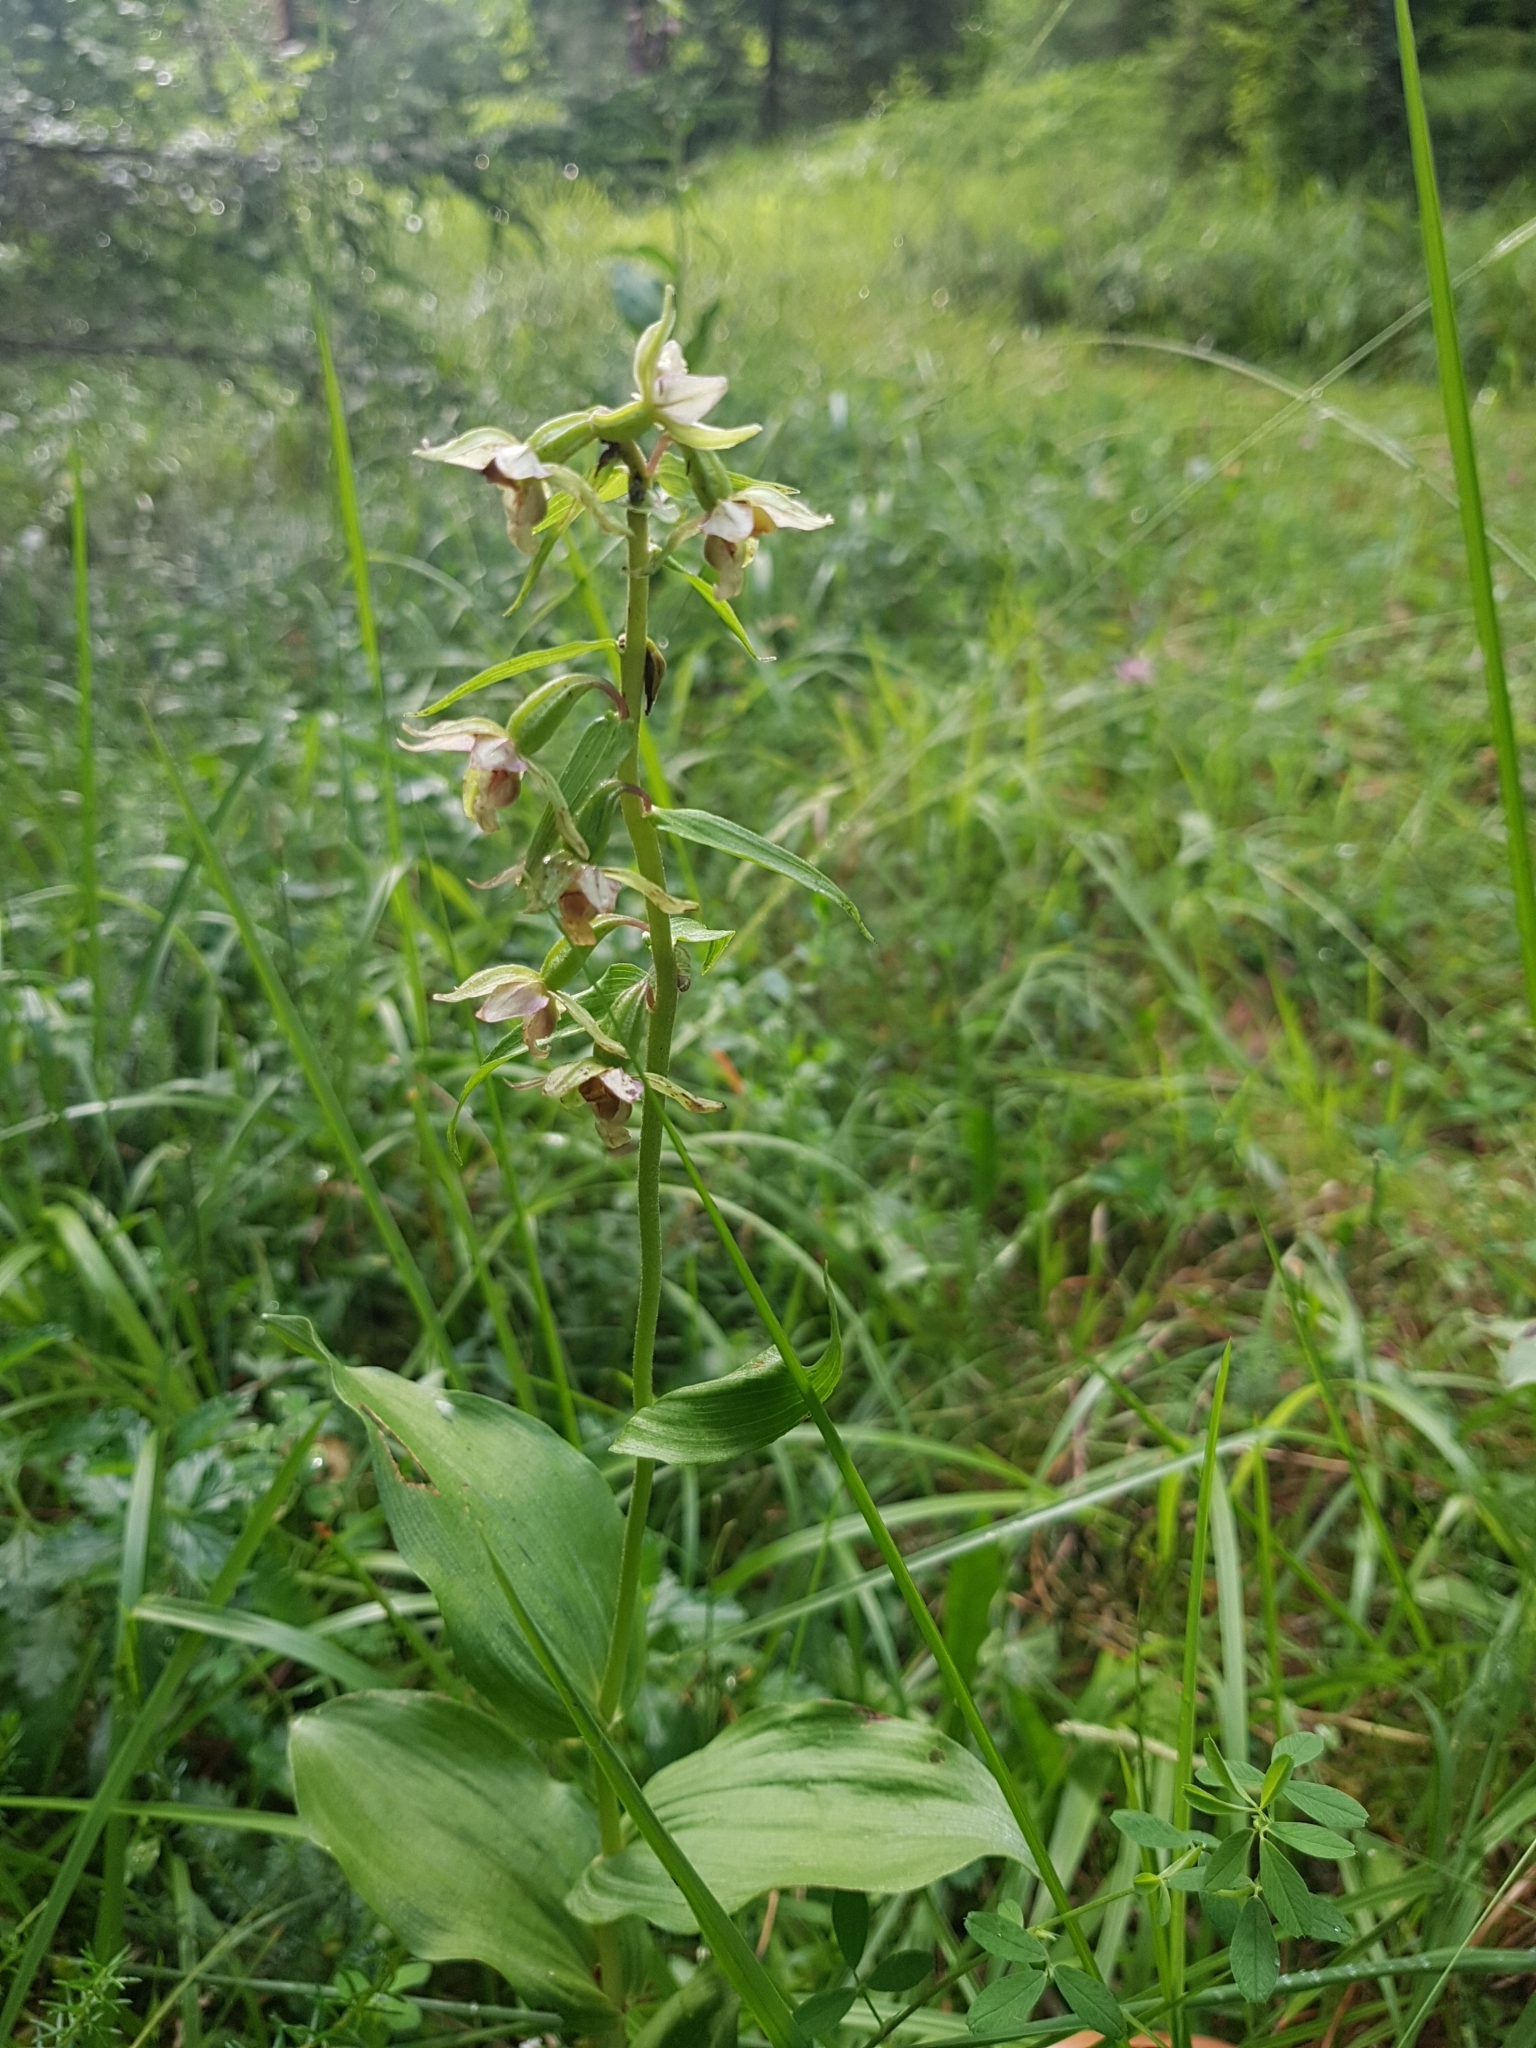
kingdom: Plantae
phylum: Tracheophyta
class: Liliopsida
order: Asparagales
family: Orchidaceae
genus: Epipactis
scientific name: Epipactis helleborine
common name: Broad-leaved helleborine
